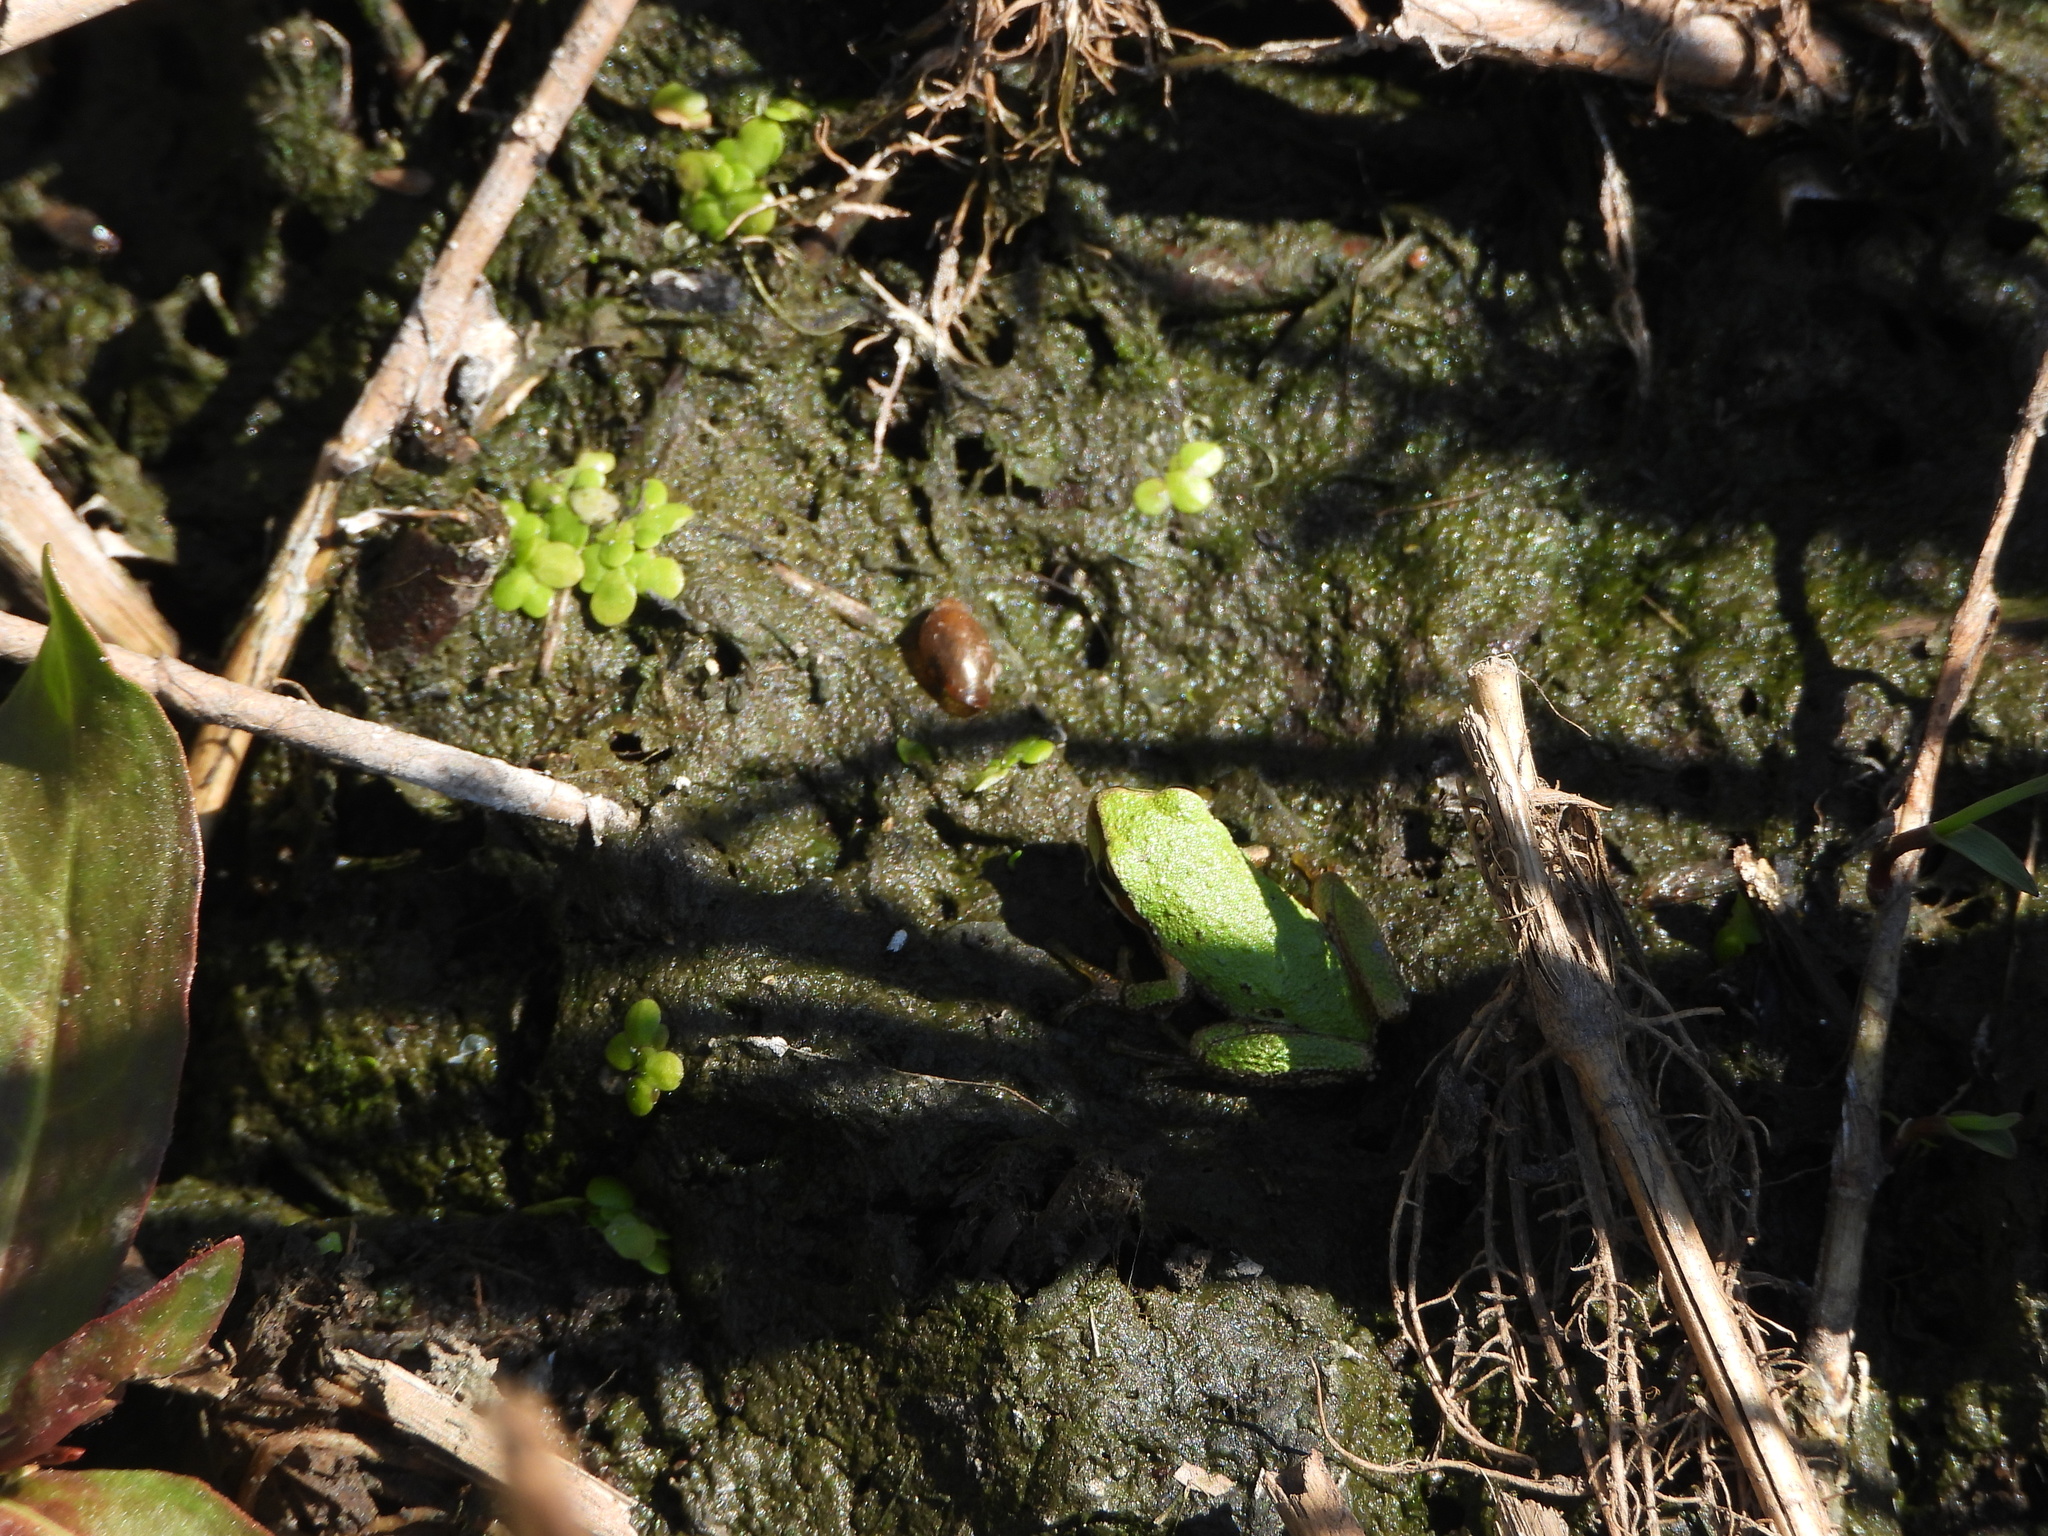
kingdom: Animalia
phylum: Chordata
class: Amphibia
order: Anura
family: Hylidae
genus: Pseudacris
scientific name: Pseudacris regilla
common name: Pacific chorus frog
